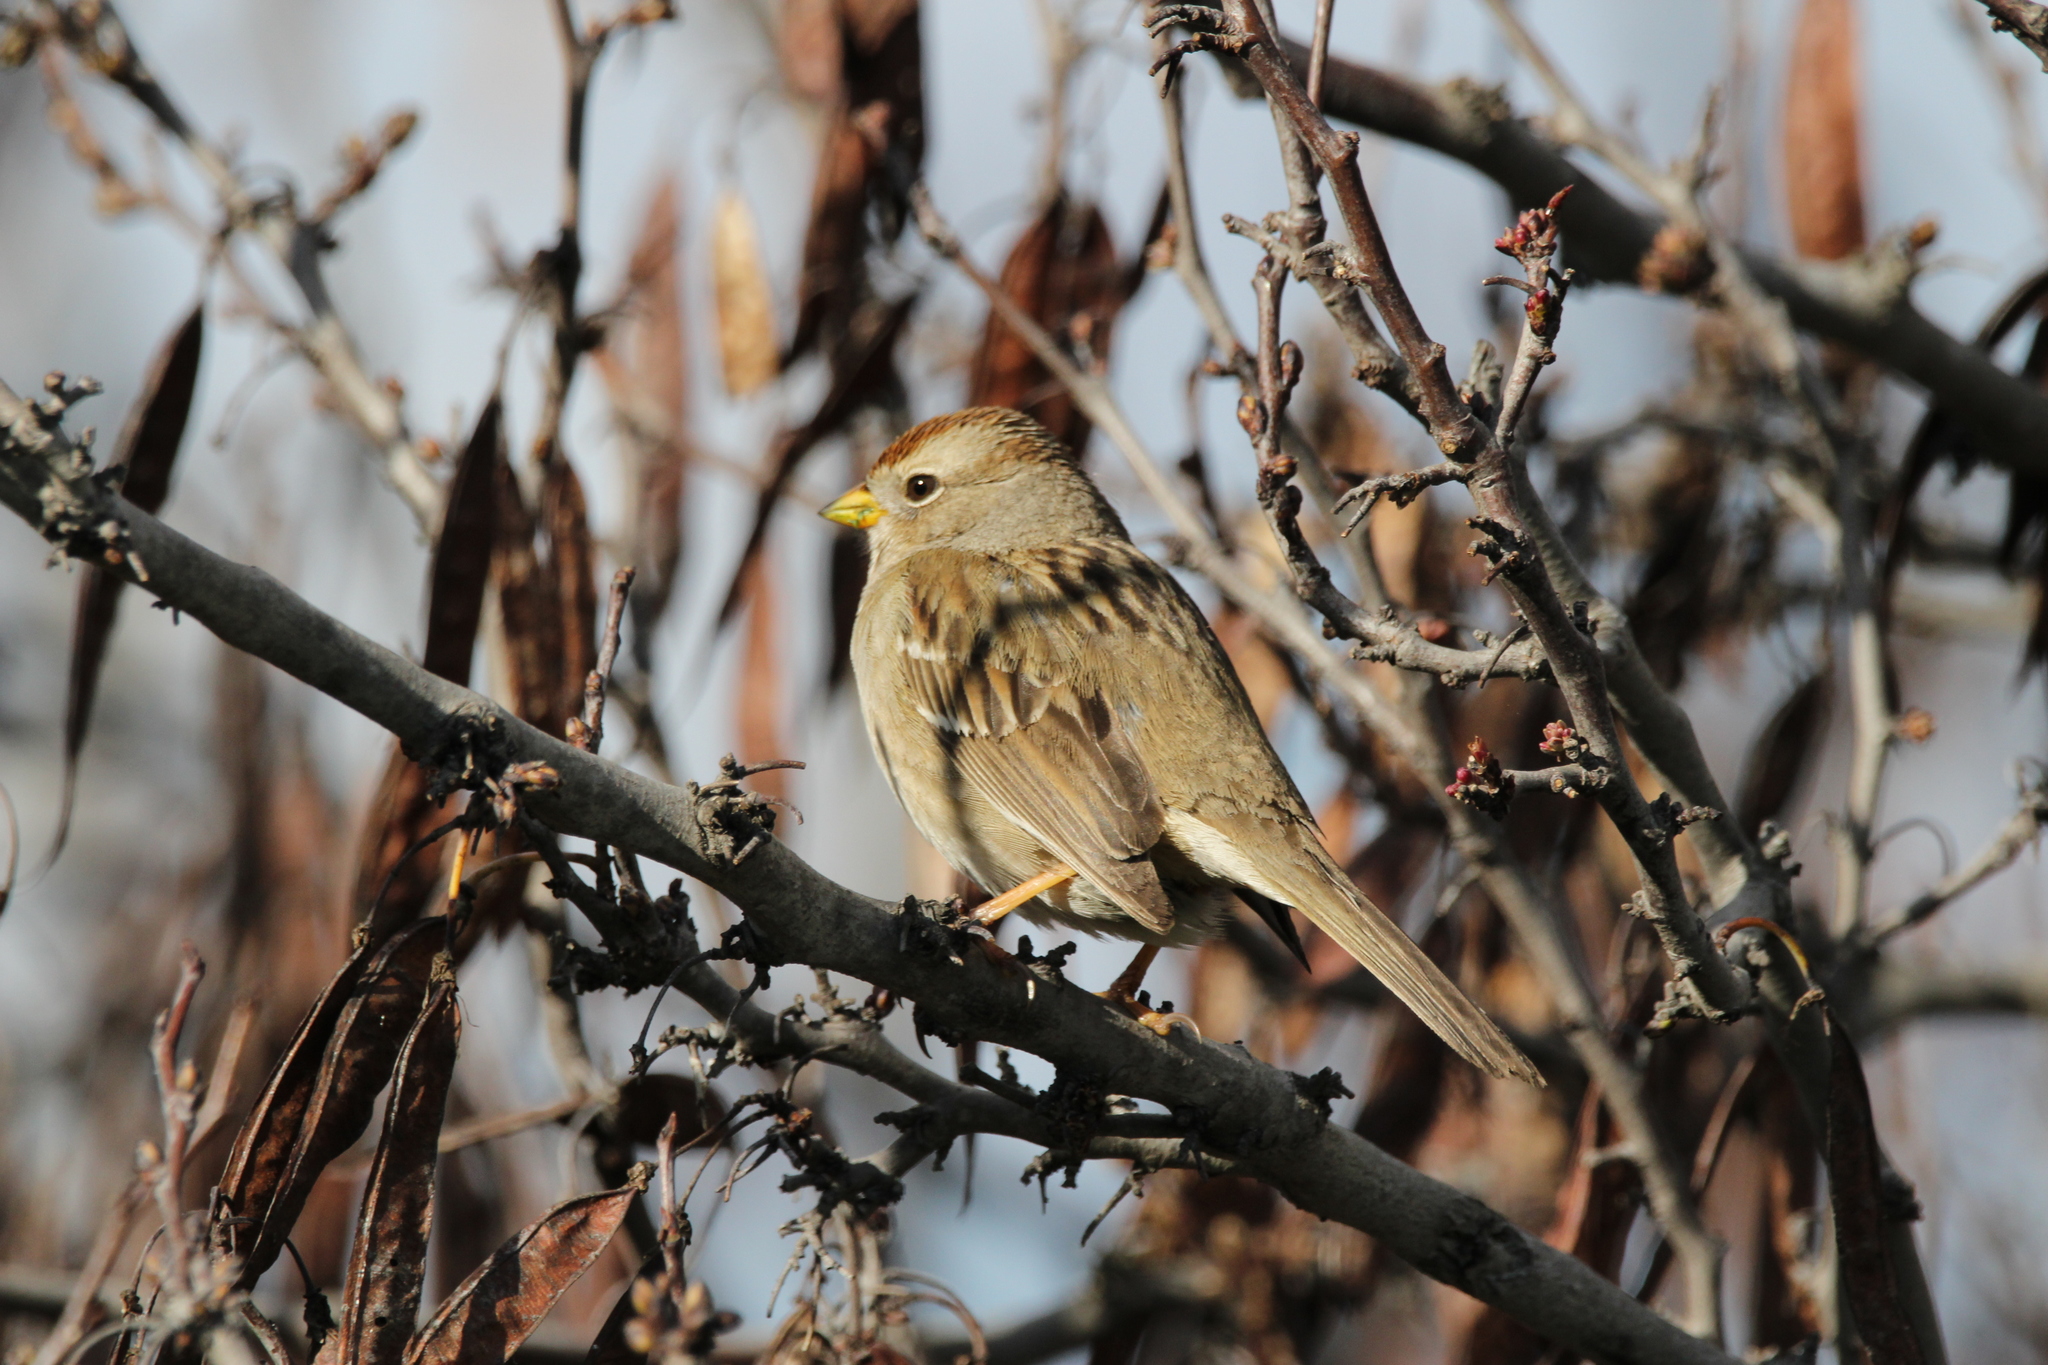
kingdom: Animalia
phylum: Chordata
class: Aves
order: Passeriformes
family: Passerellidae
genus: Zonotrichia
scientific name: Zonotrichia leucophrys
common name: White-crowned sparrow
